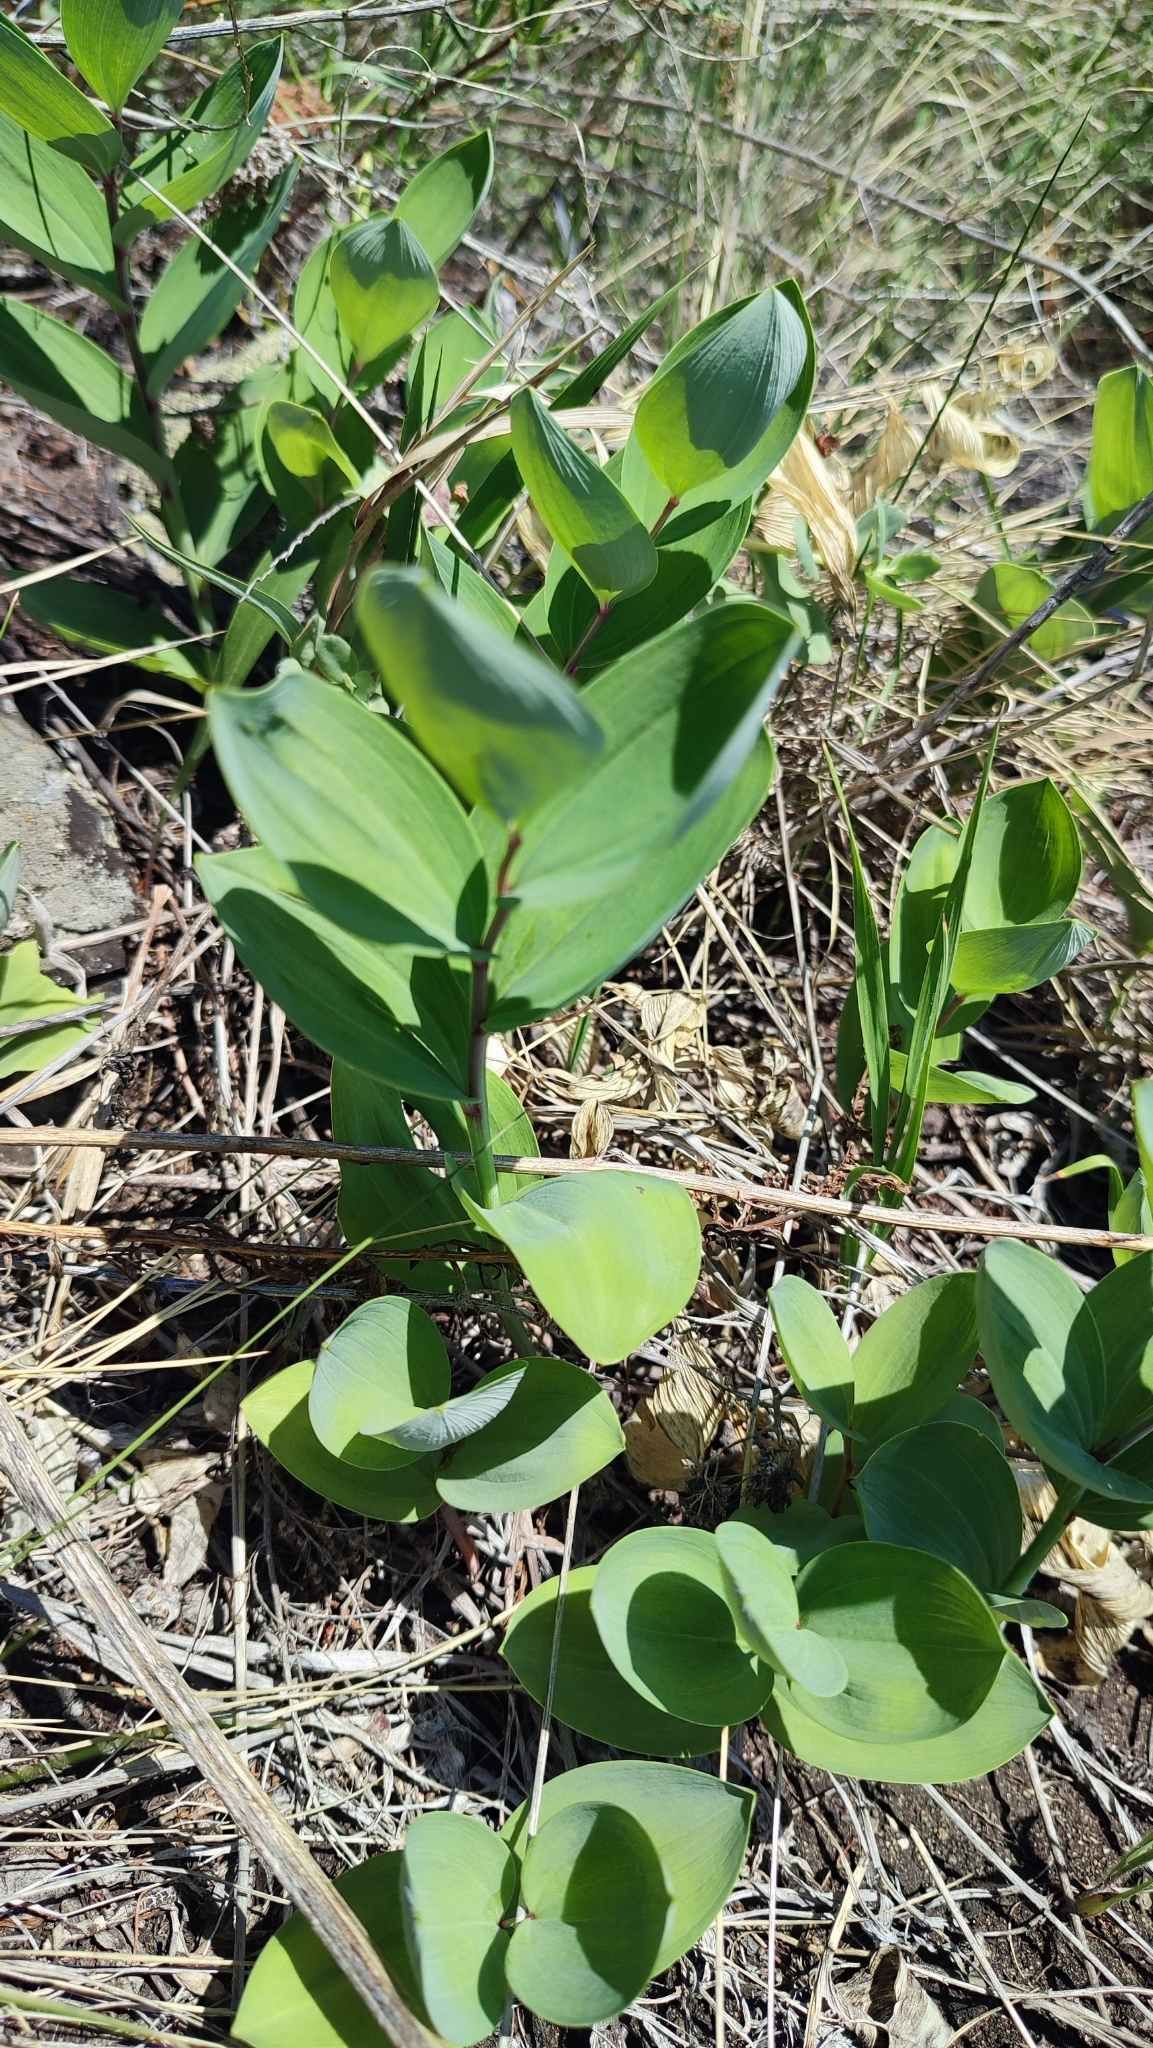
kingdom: Plantae
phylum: Tracheophyta
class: Liliopsida
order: Asparagales
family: Asparagaceae
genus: Polygonatum
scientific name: Polygonatum odoratum
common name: Angular solomon's-seal
